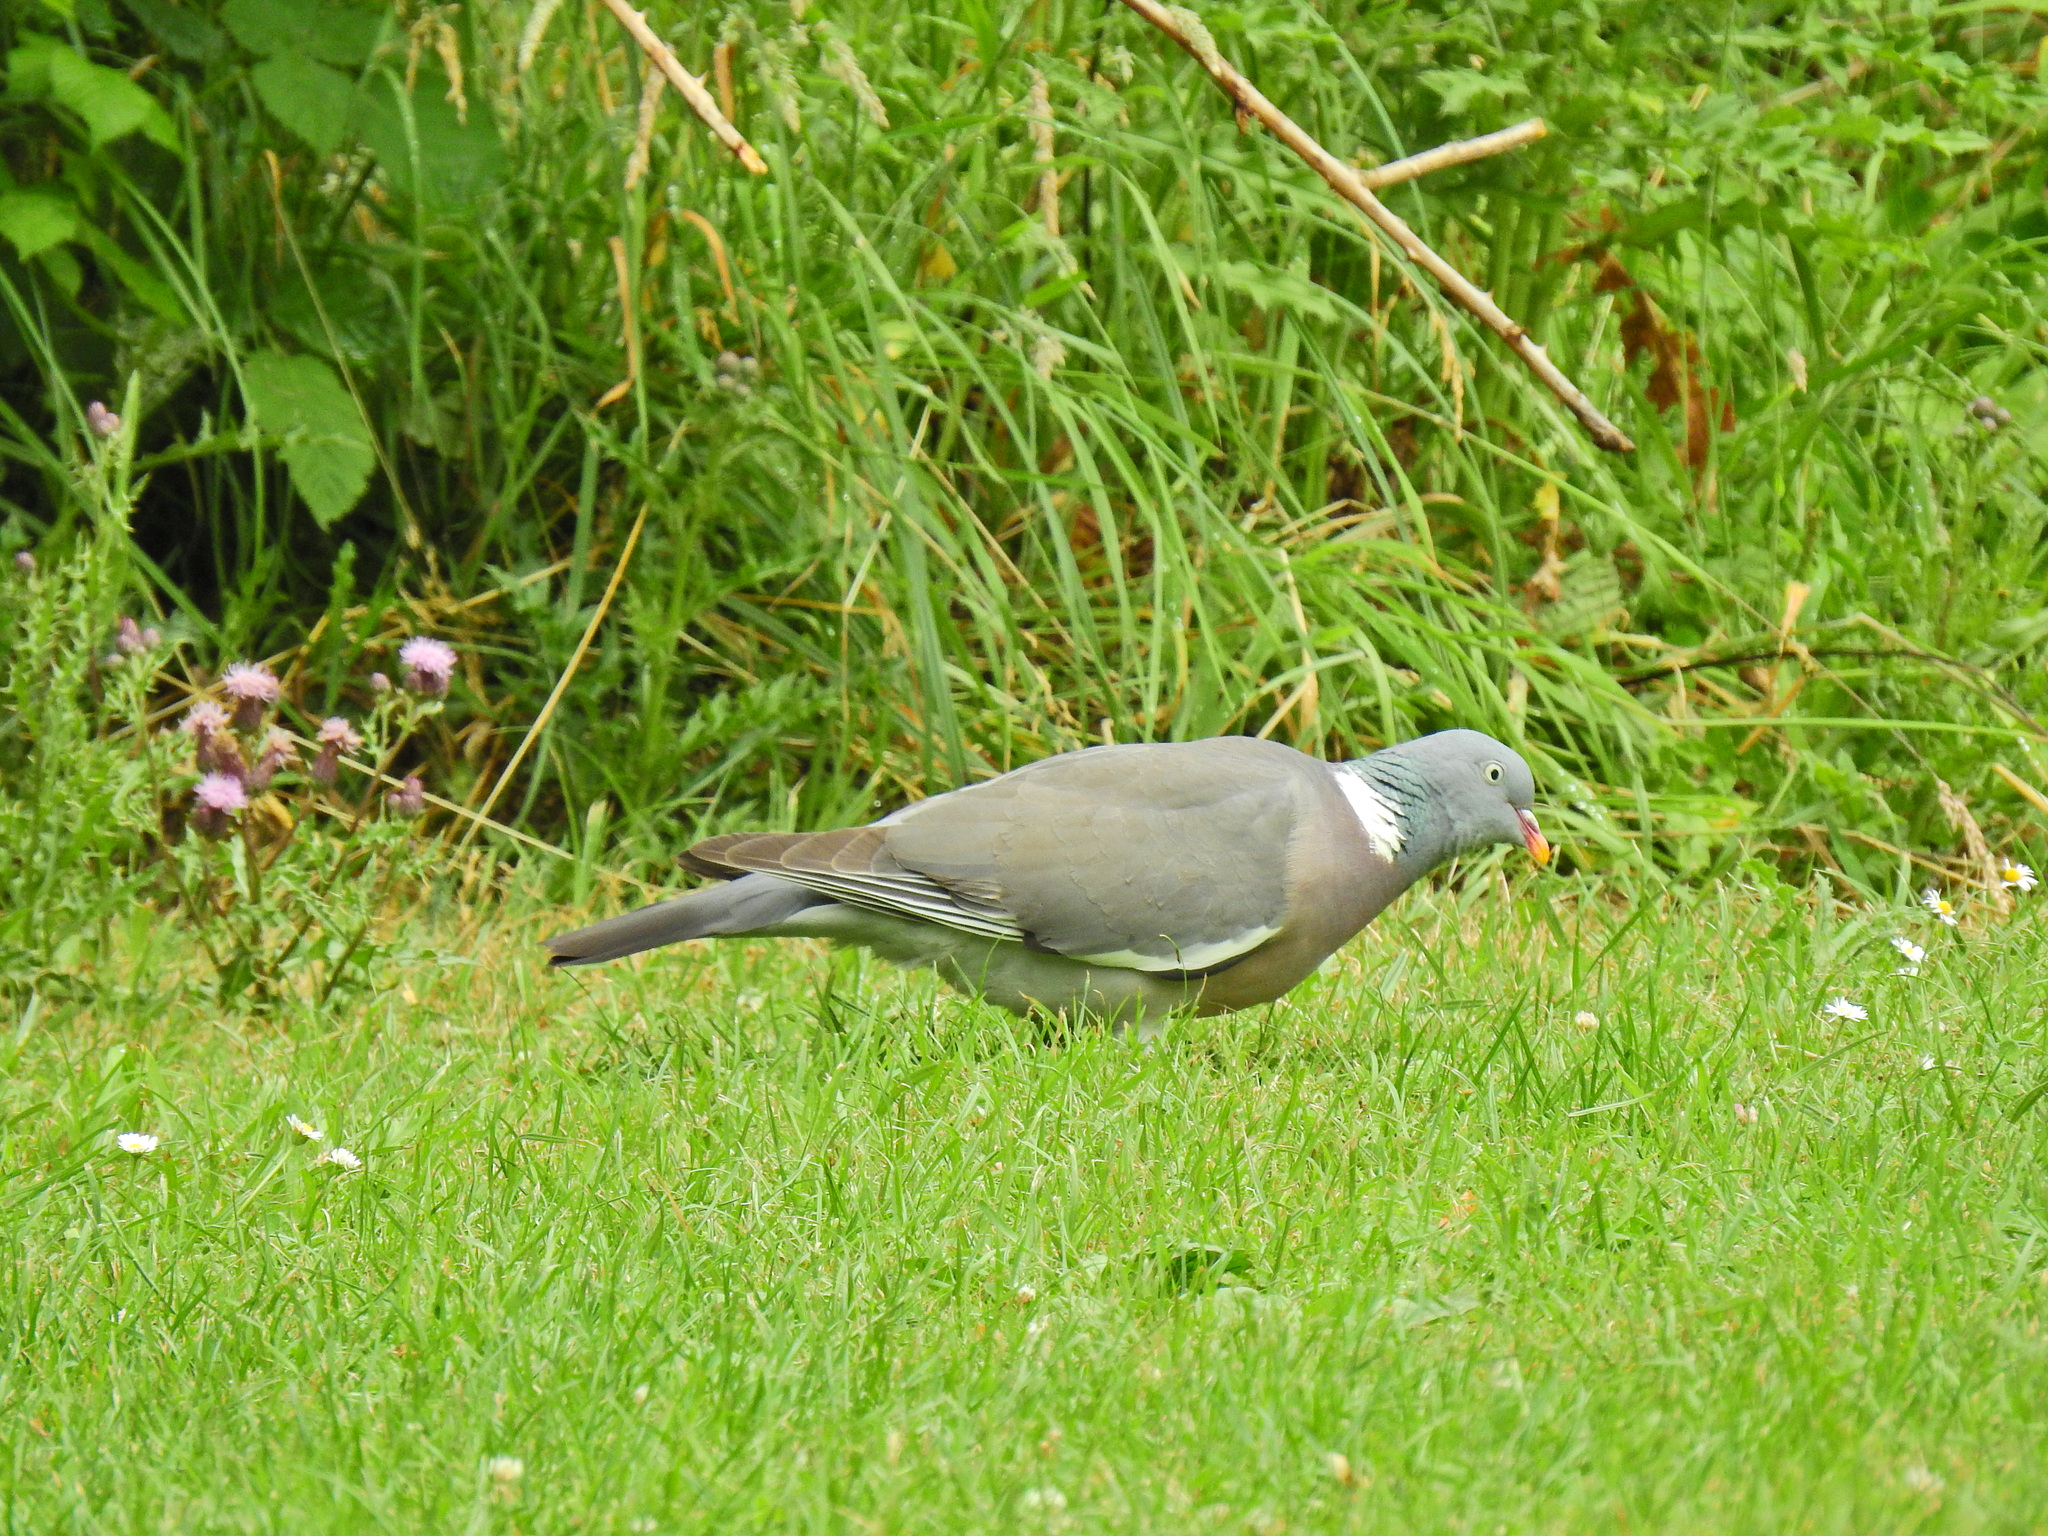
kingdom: Animalia
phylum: Chordata
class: Aves
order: Columbiformes
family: Columbidae
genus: Columba
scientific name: Columba palumbus
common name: Common wood pigeon
